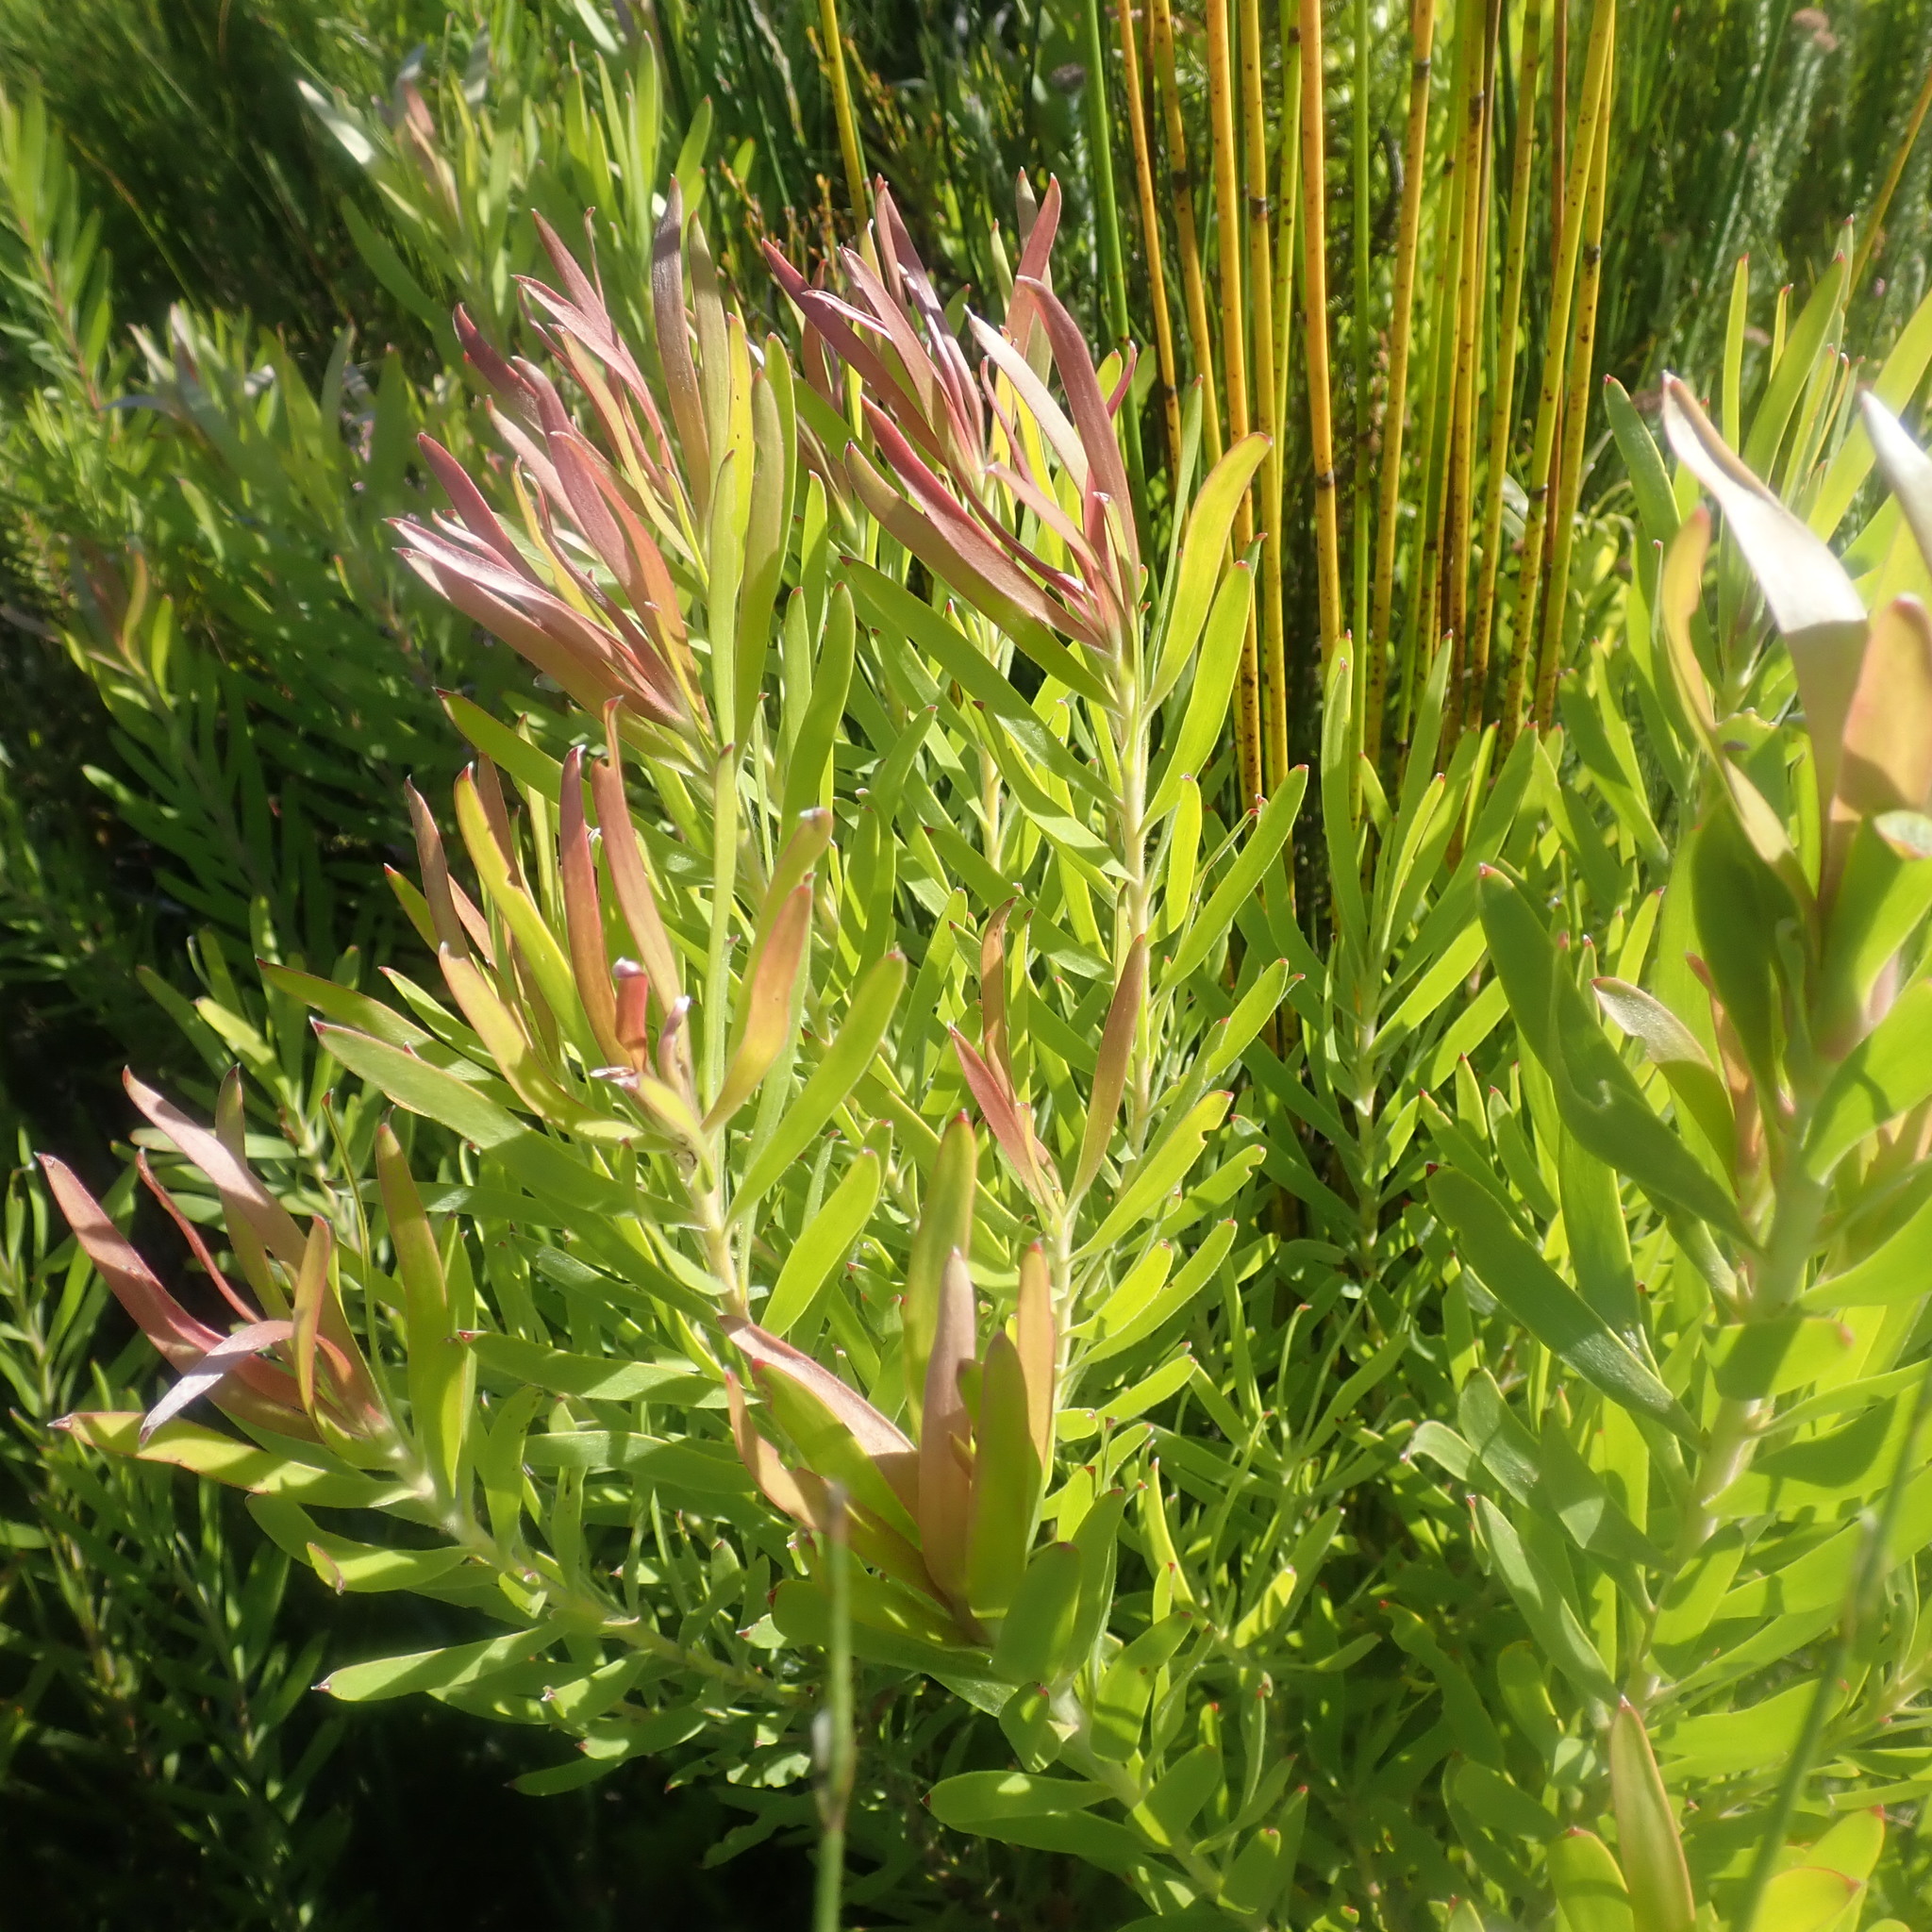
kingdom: Plantae
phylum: Tracheophyta
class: Magnoliopsida
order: Proteales
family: Proteaceae
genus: Leucadendron
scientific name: Leucadendron eucalyptifolium
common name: Gum-leaved conebush
